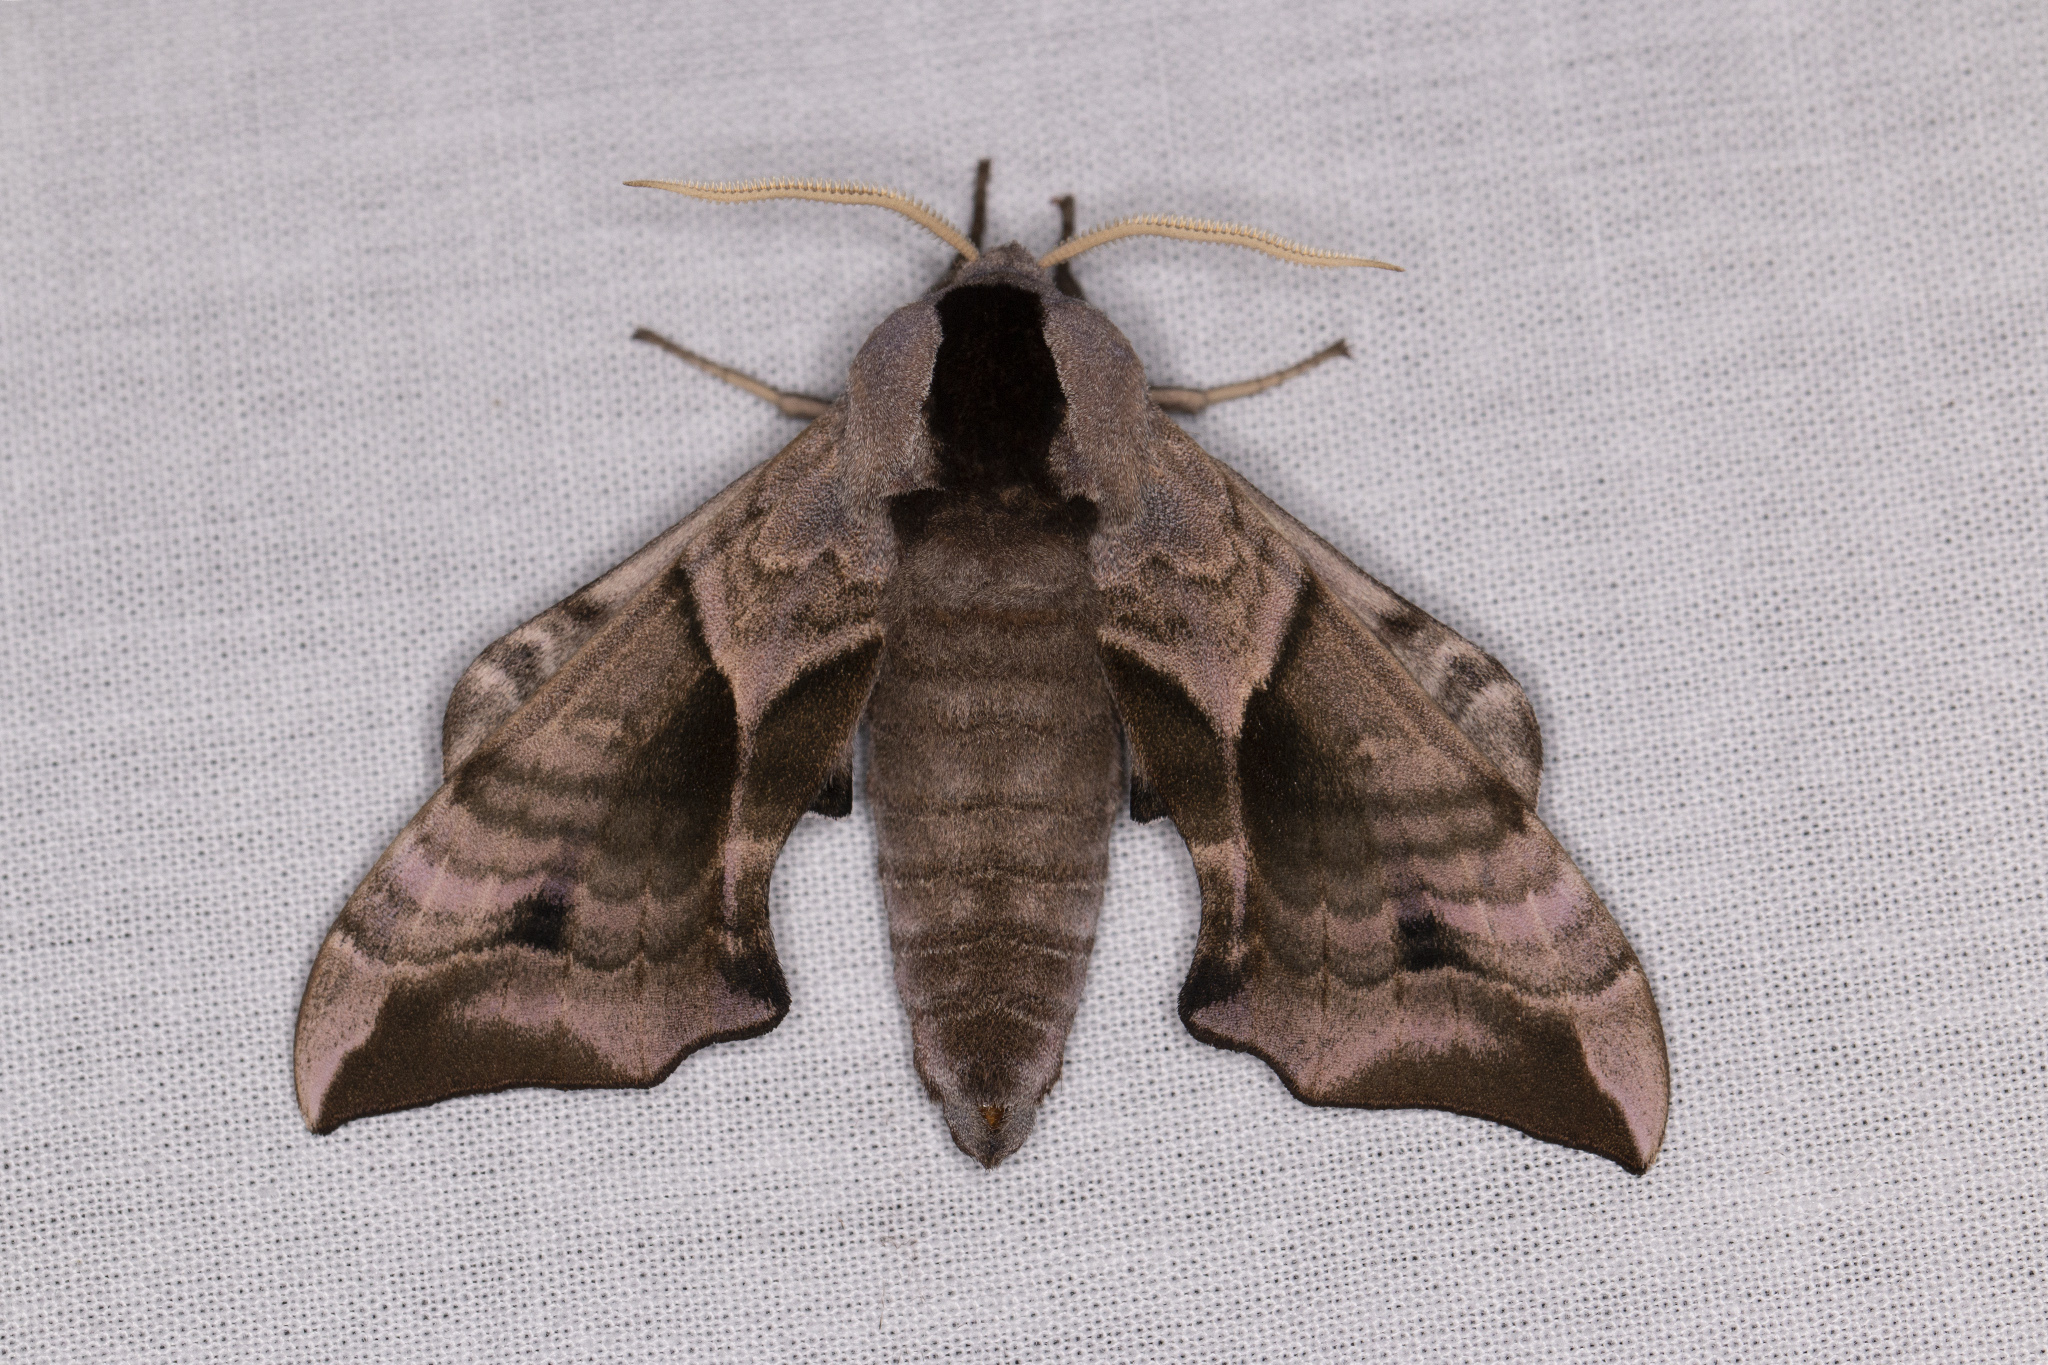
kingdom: Animalia
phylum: Arthropoda
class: Insecta
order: Lepidoptera
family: Sphingidae
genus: Smerinthus
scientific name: Smerinthus ocellata
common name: Eyed hawk-moth
